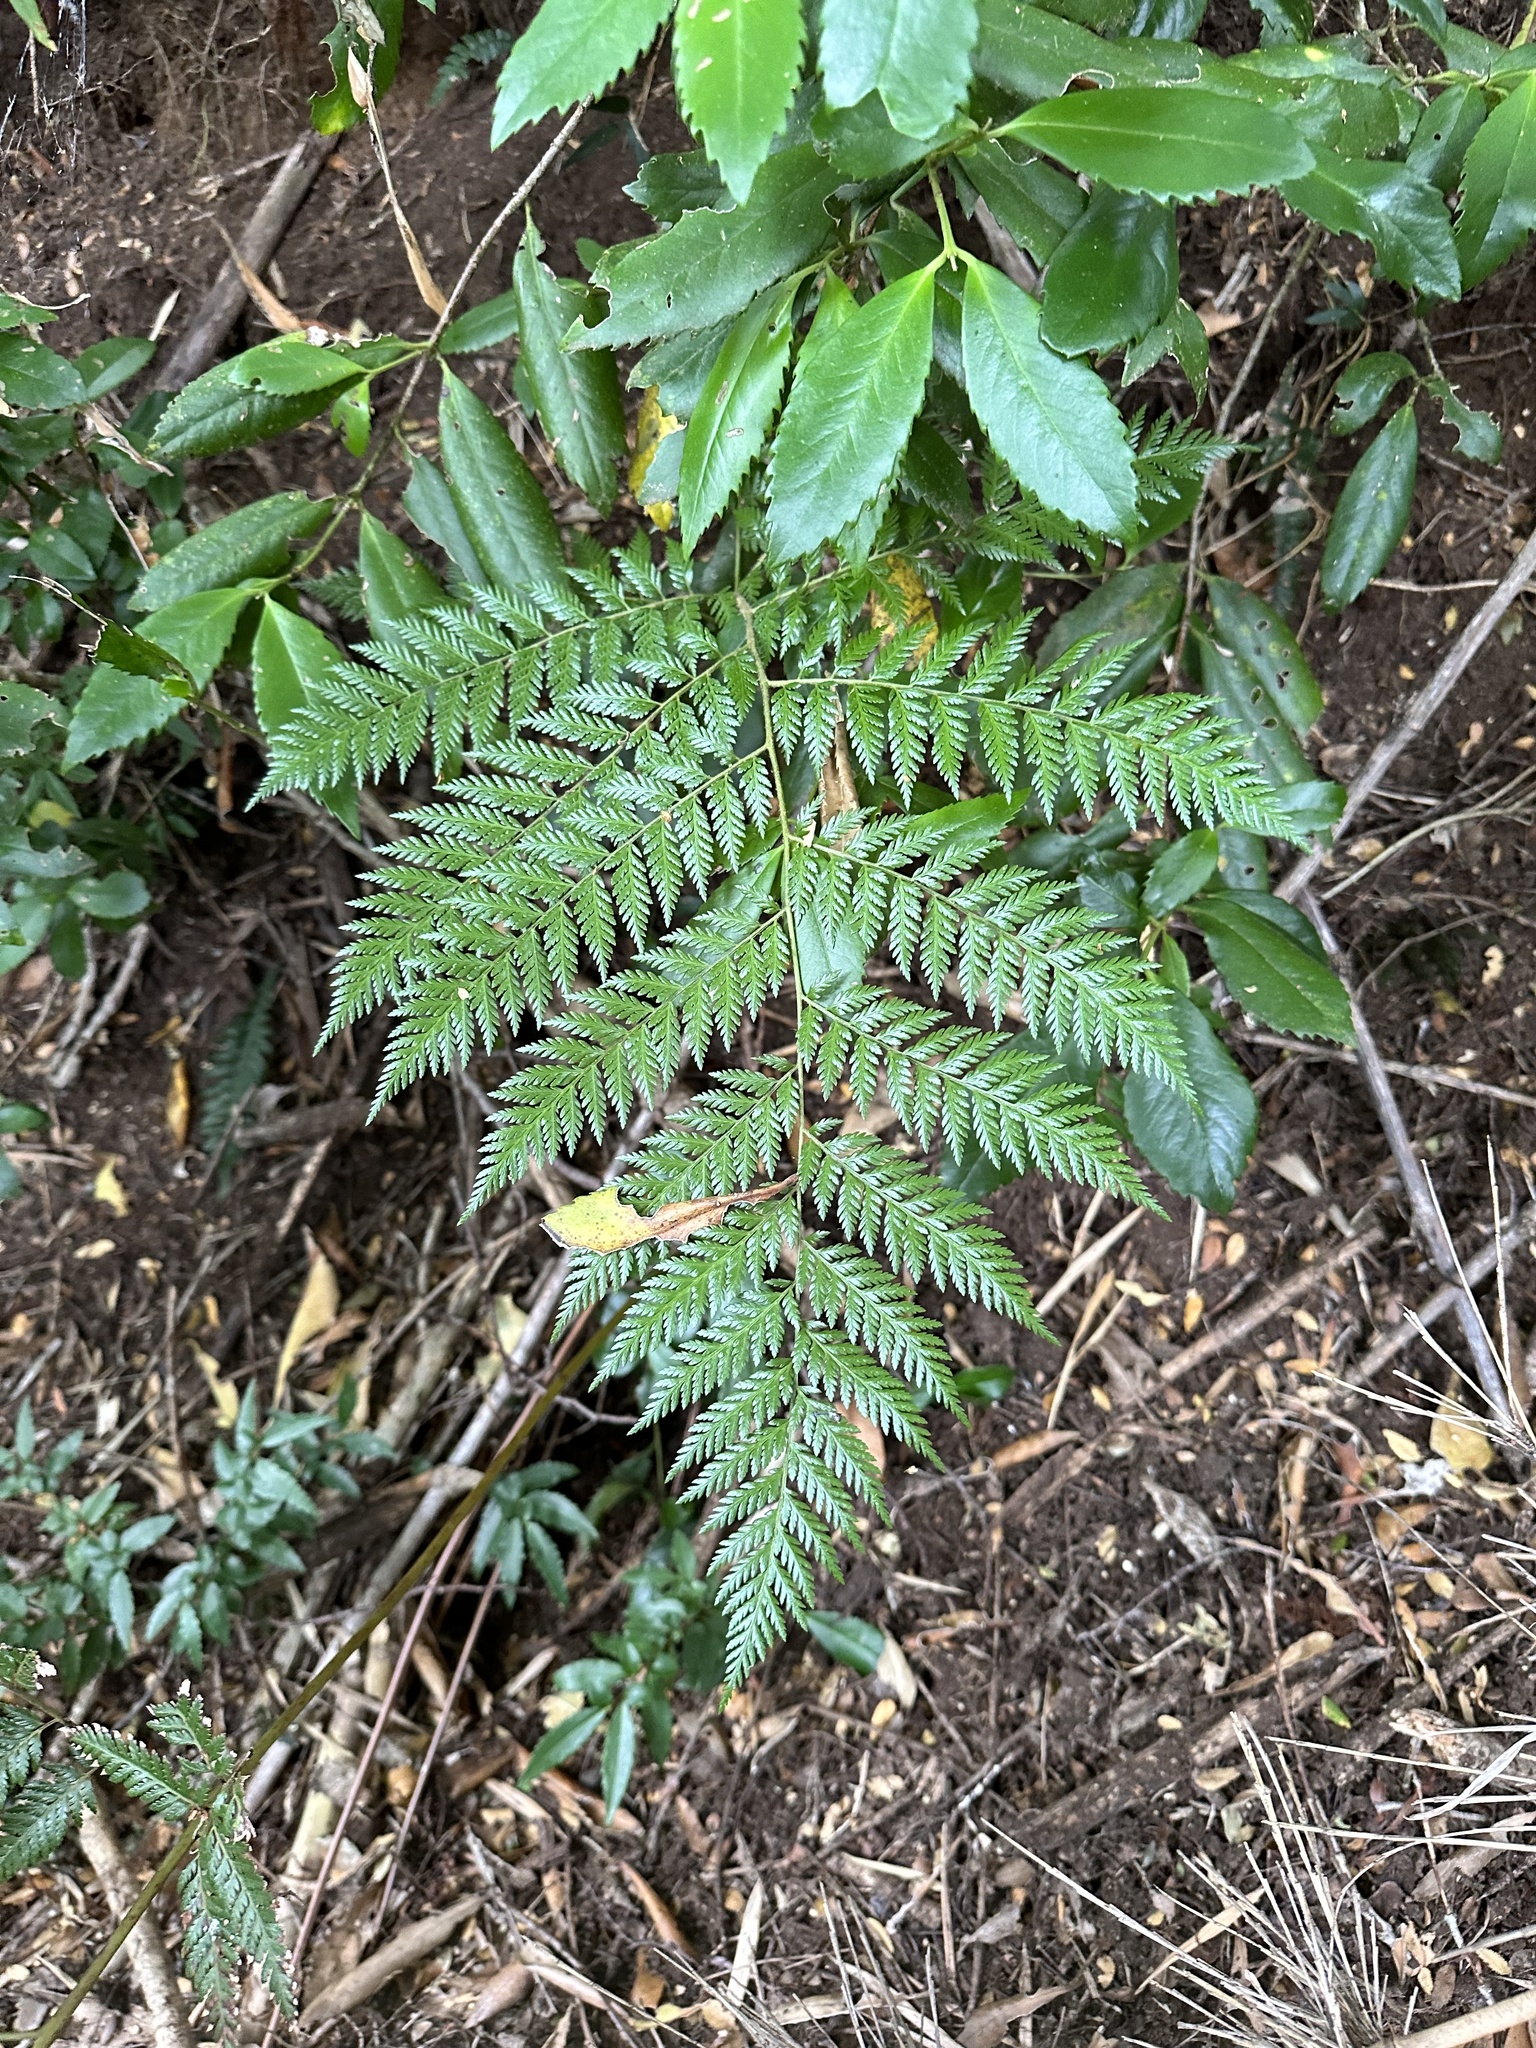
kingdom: Plantae
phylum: Tracheophyta
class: Polypodiopsida
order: Cyatheales
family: Dicksoniaceae
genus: Lophosoria
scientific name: Lophosoria quadripinnata
